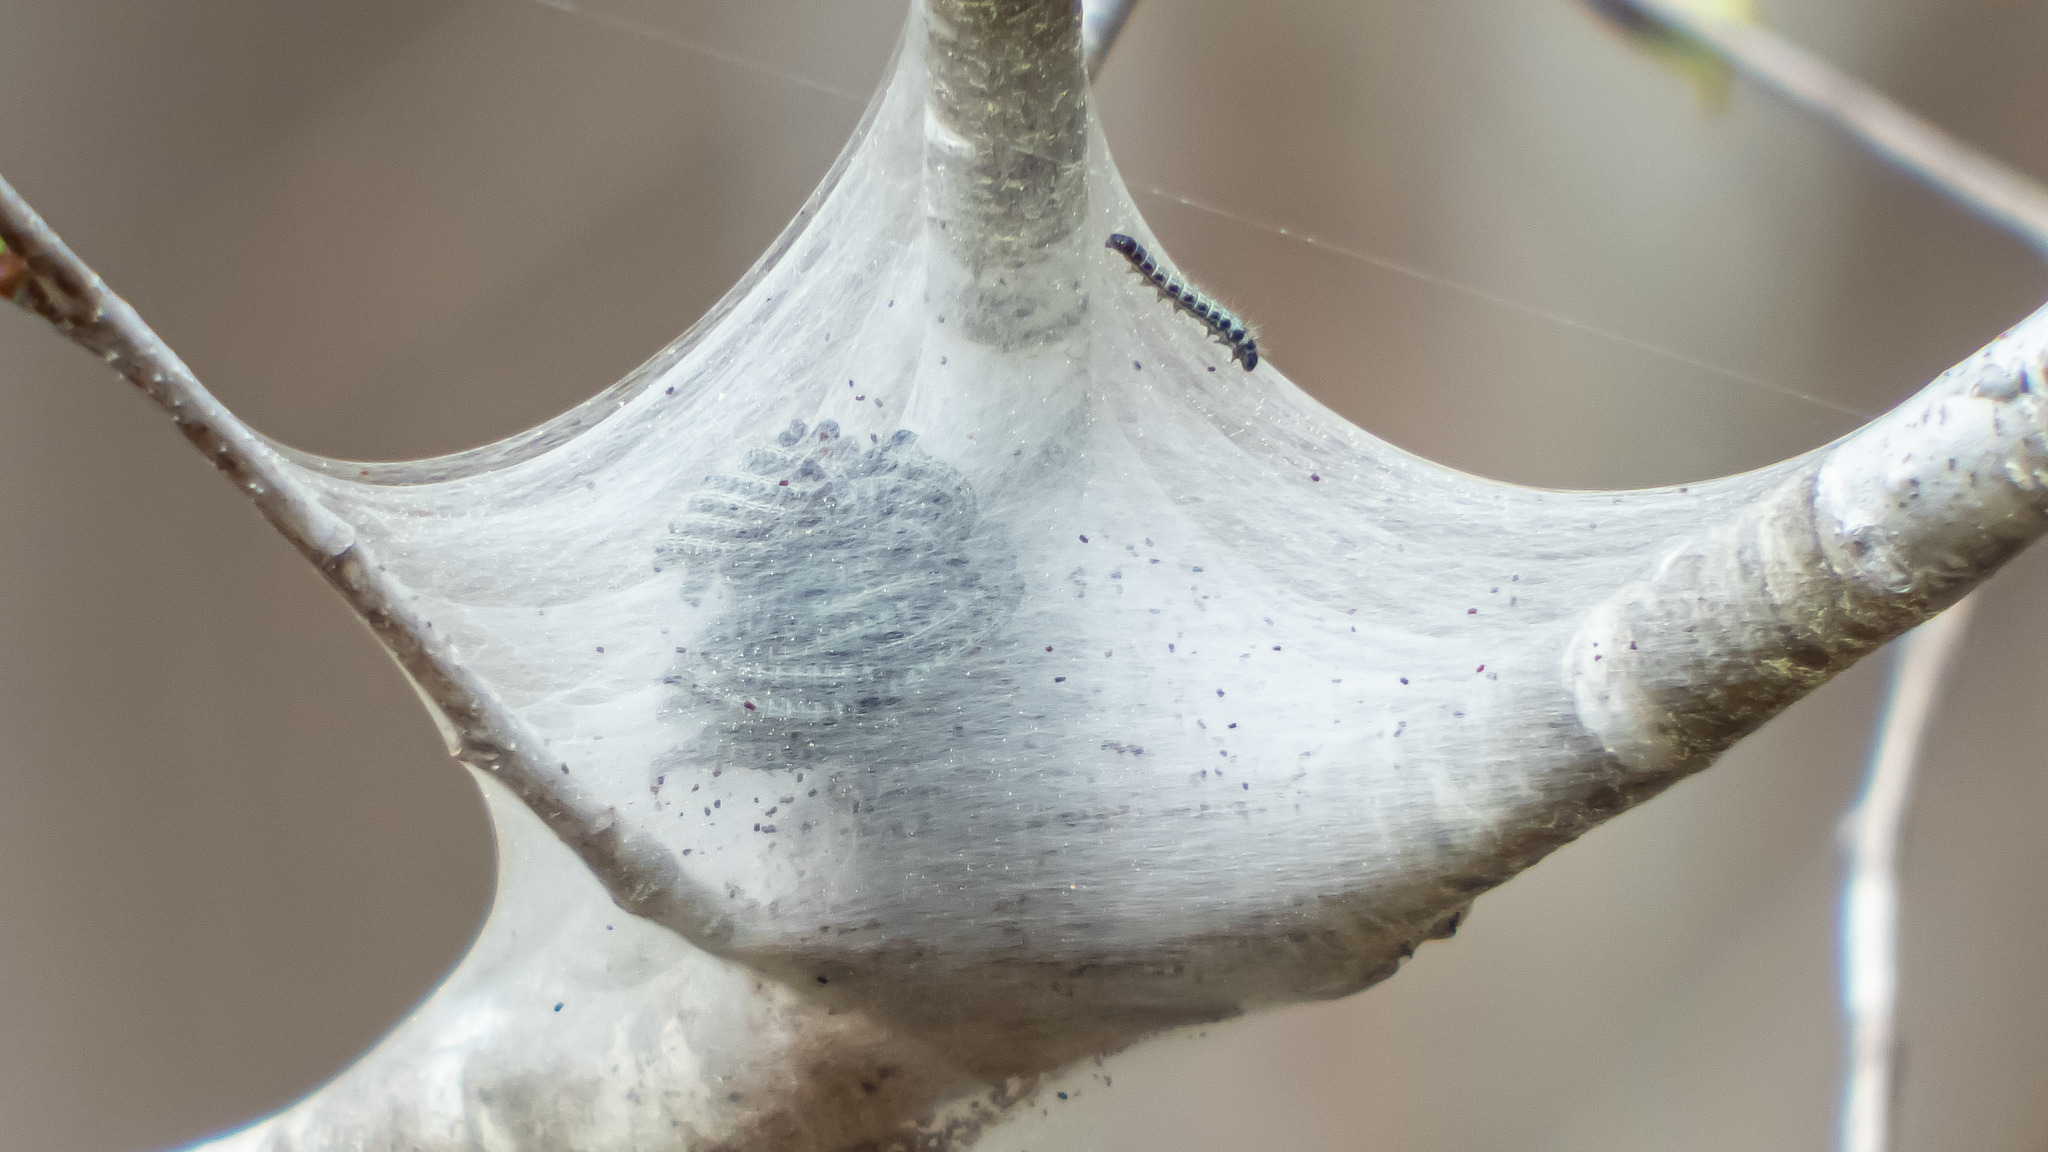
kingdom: Animalia
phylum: Arthropoda
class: Insecta
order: Lepidoptera
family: Lasiocampidae
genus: Malacosoma
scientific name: Malacosoma americana
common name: Eastern tent caterpillar moth
